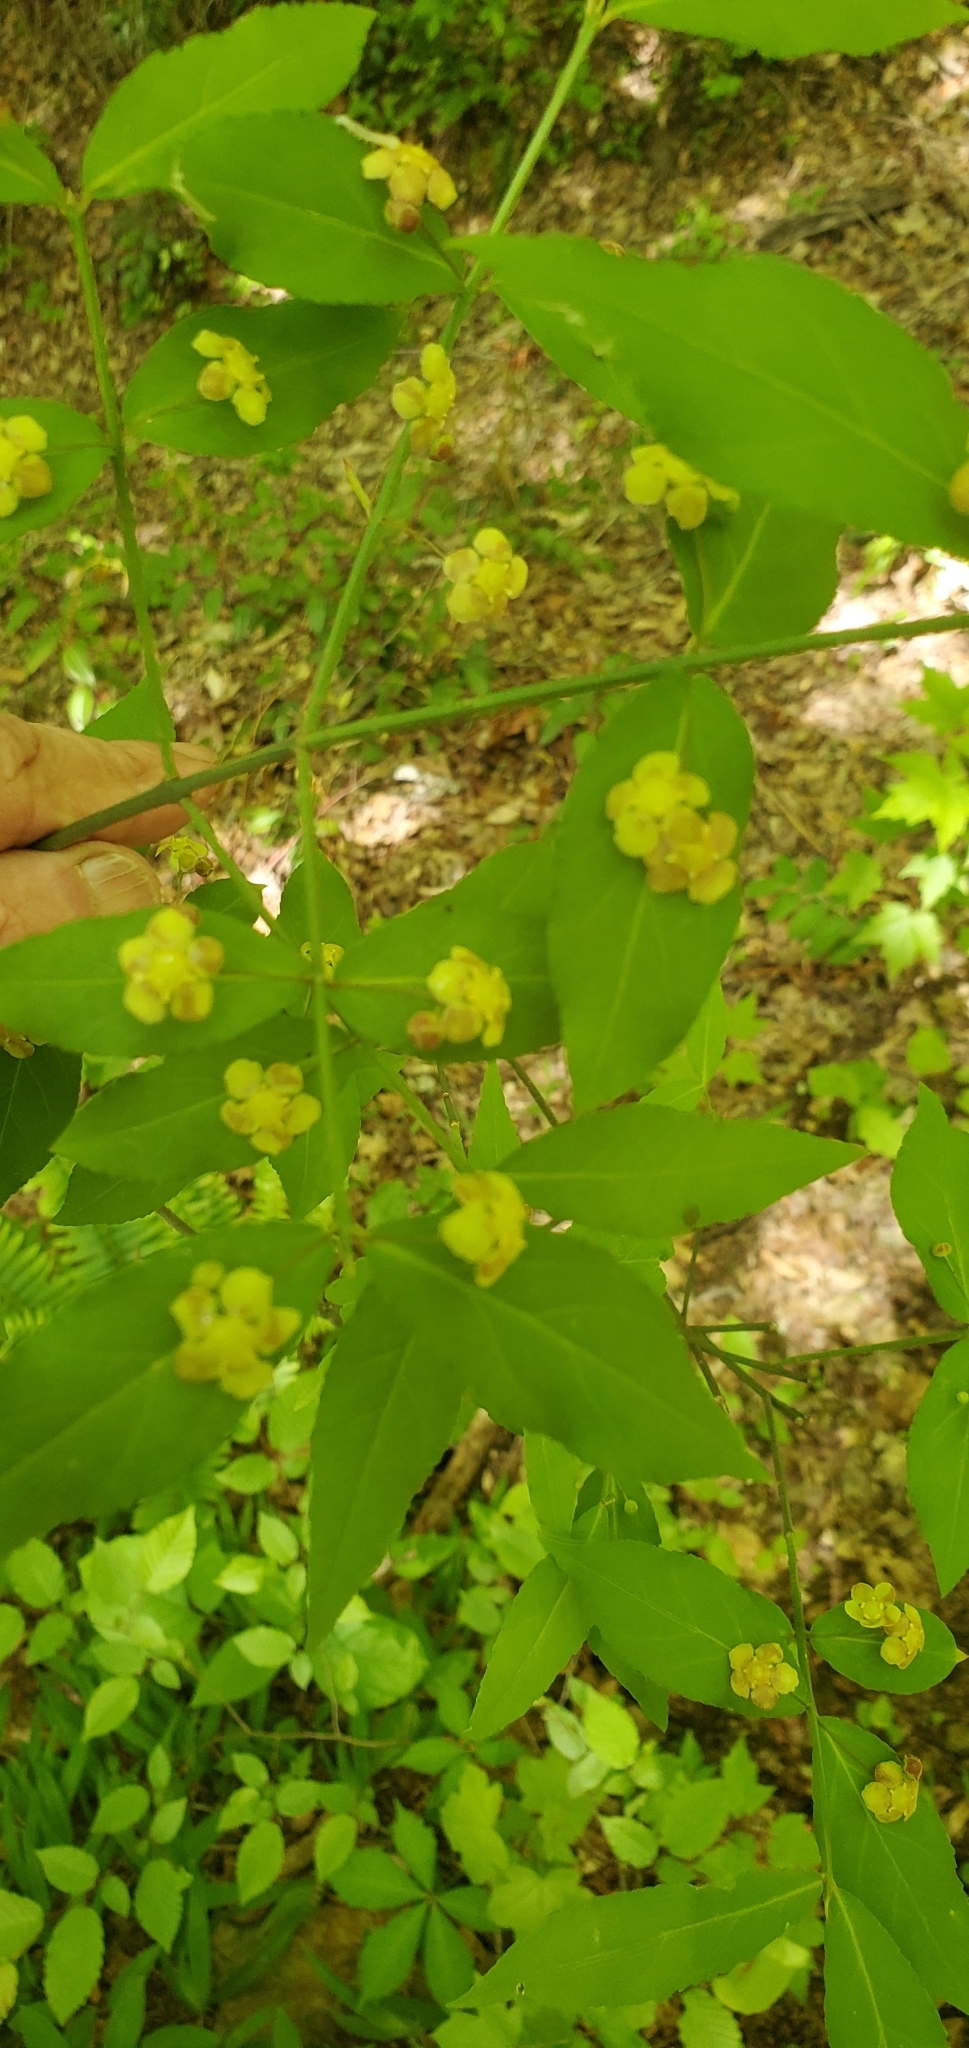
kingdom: Plantae
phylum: Tracheophyta
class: Magnoliopsida
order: Celastrales
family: Celastraceae
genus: Euonymus
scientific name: Euonymus americanus
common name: Bursting-heart
